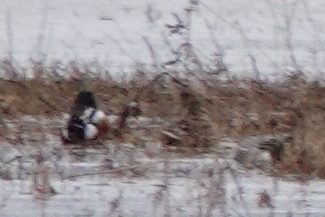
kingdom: Animalia
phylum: Chordata
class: Aves
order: Anseriformes
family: Anatidae
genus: Spatula
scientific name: Spatula clypeata
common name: Northern shoveler
